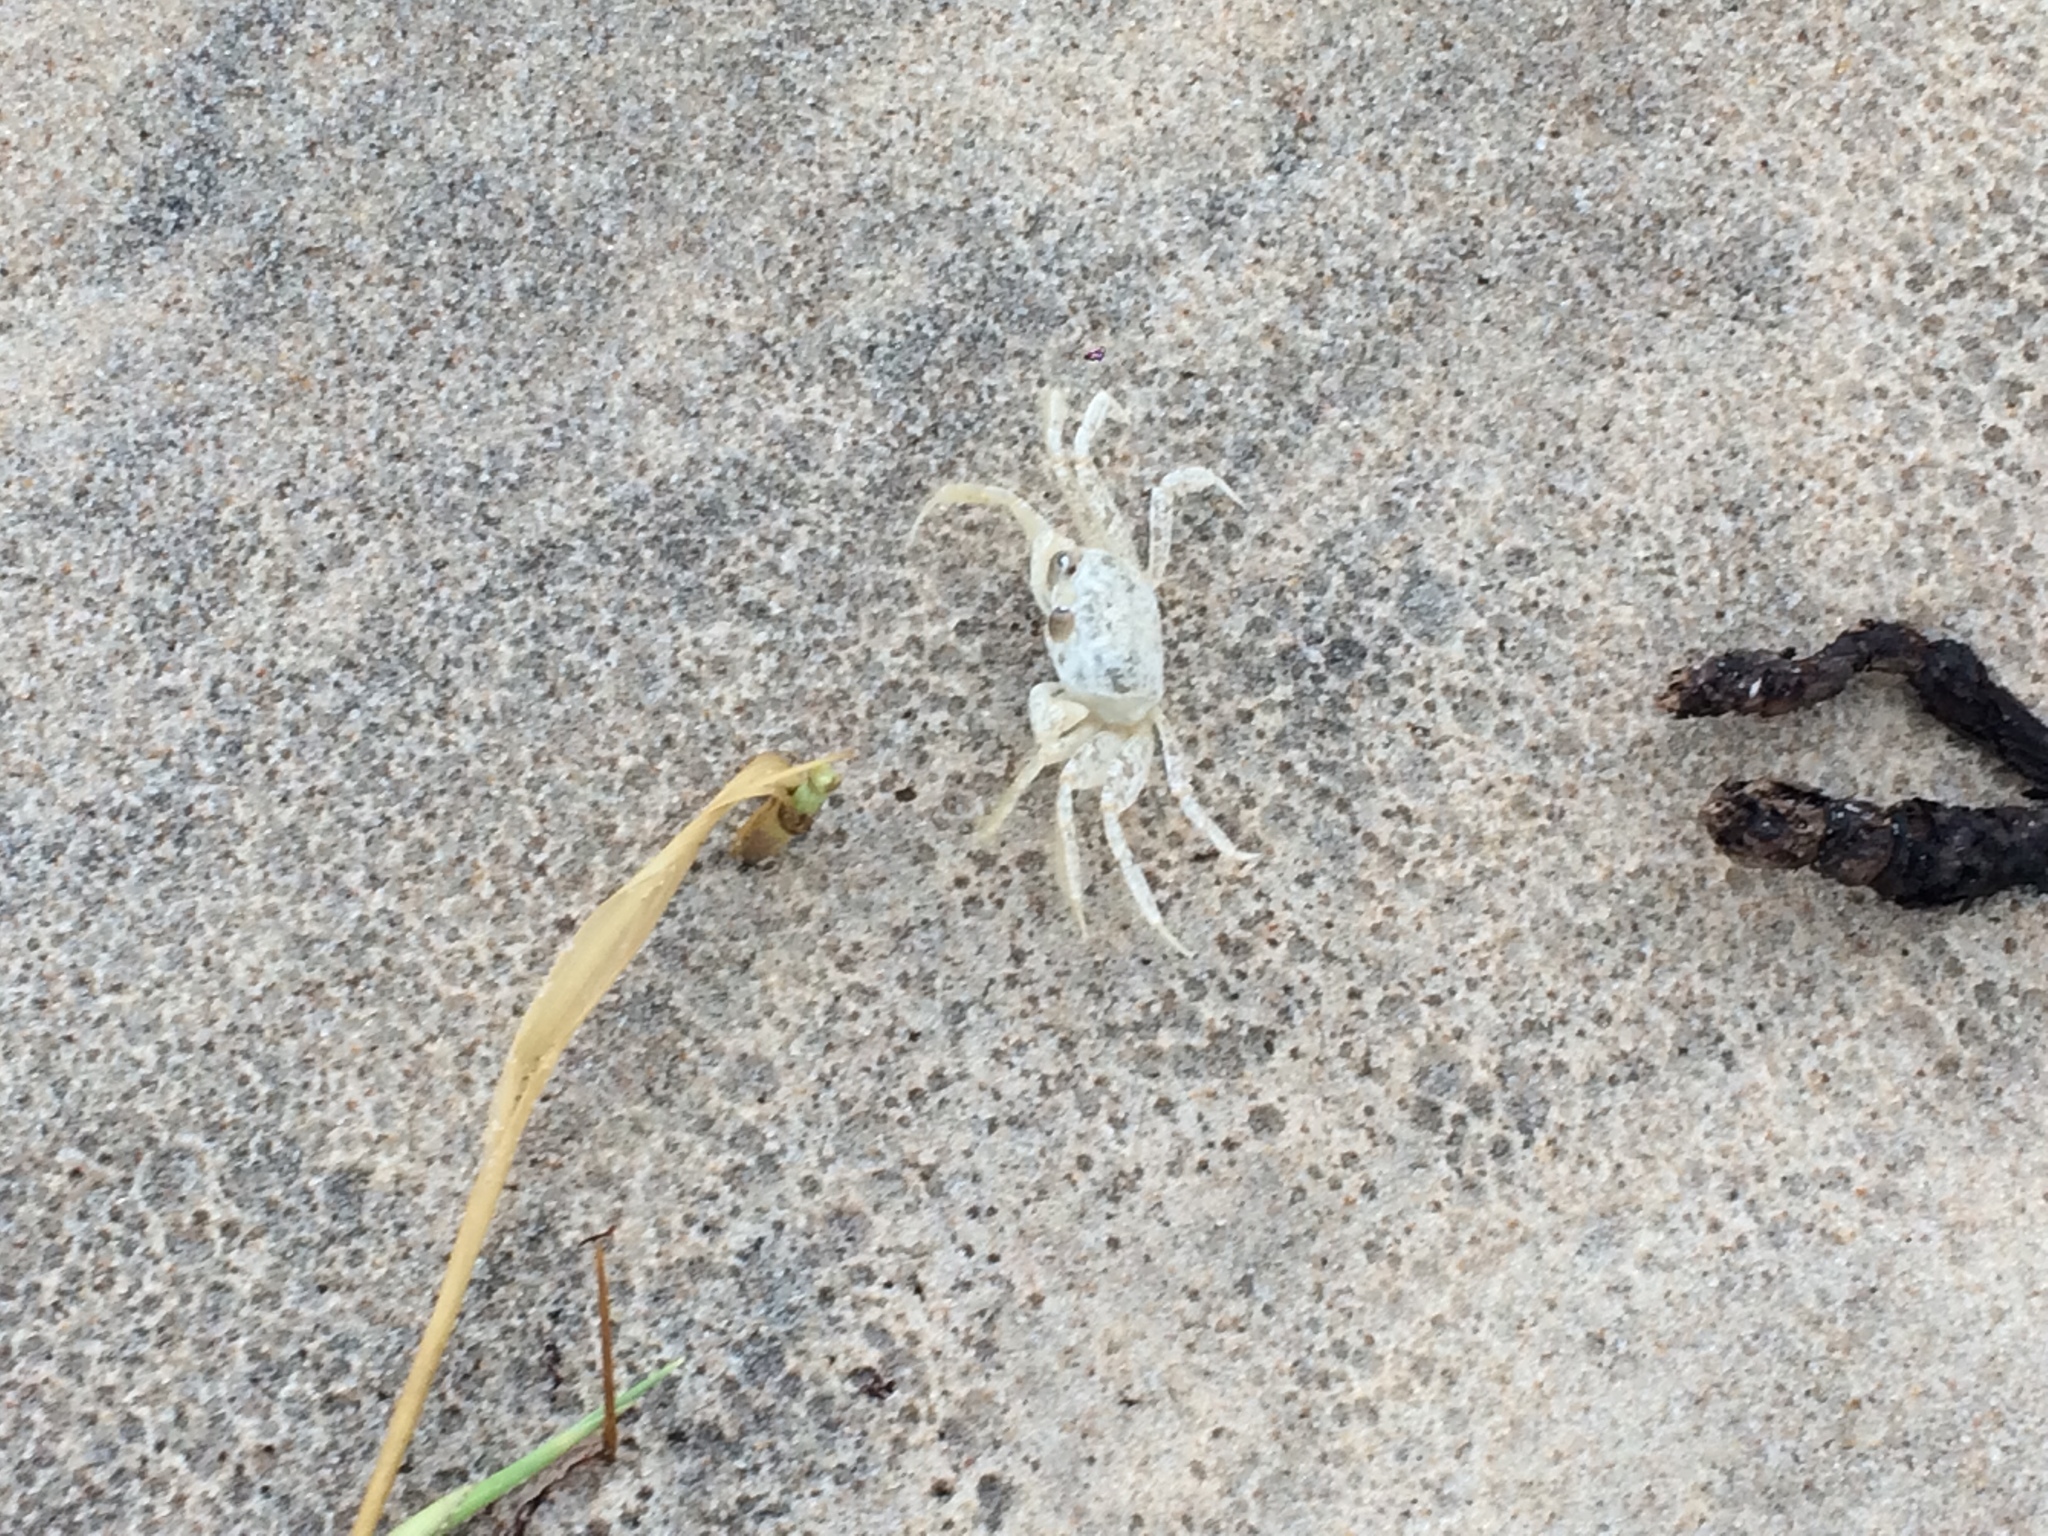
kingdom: Animalia
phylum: Arthropoda
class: Malacostraca
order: Decapoda
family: Ocypodidae
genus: Ocypode
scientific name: Ocypode quadrata
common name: Ghost crab
